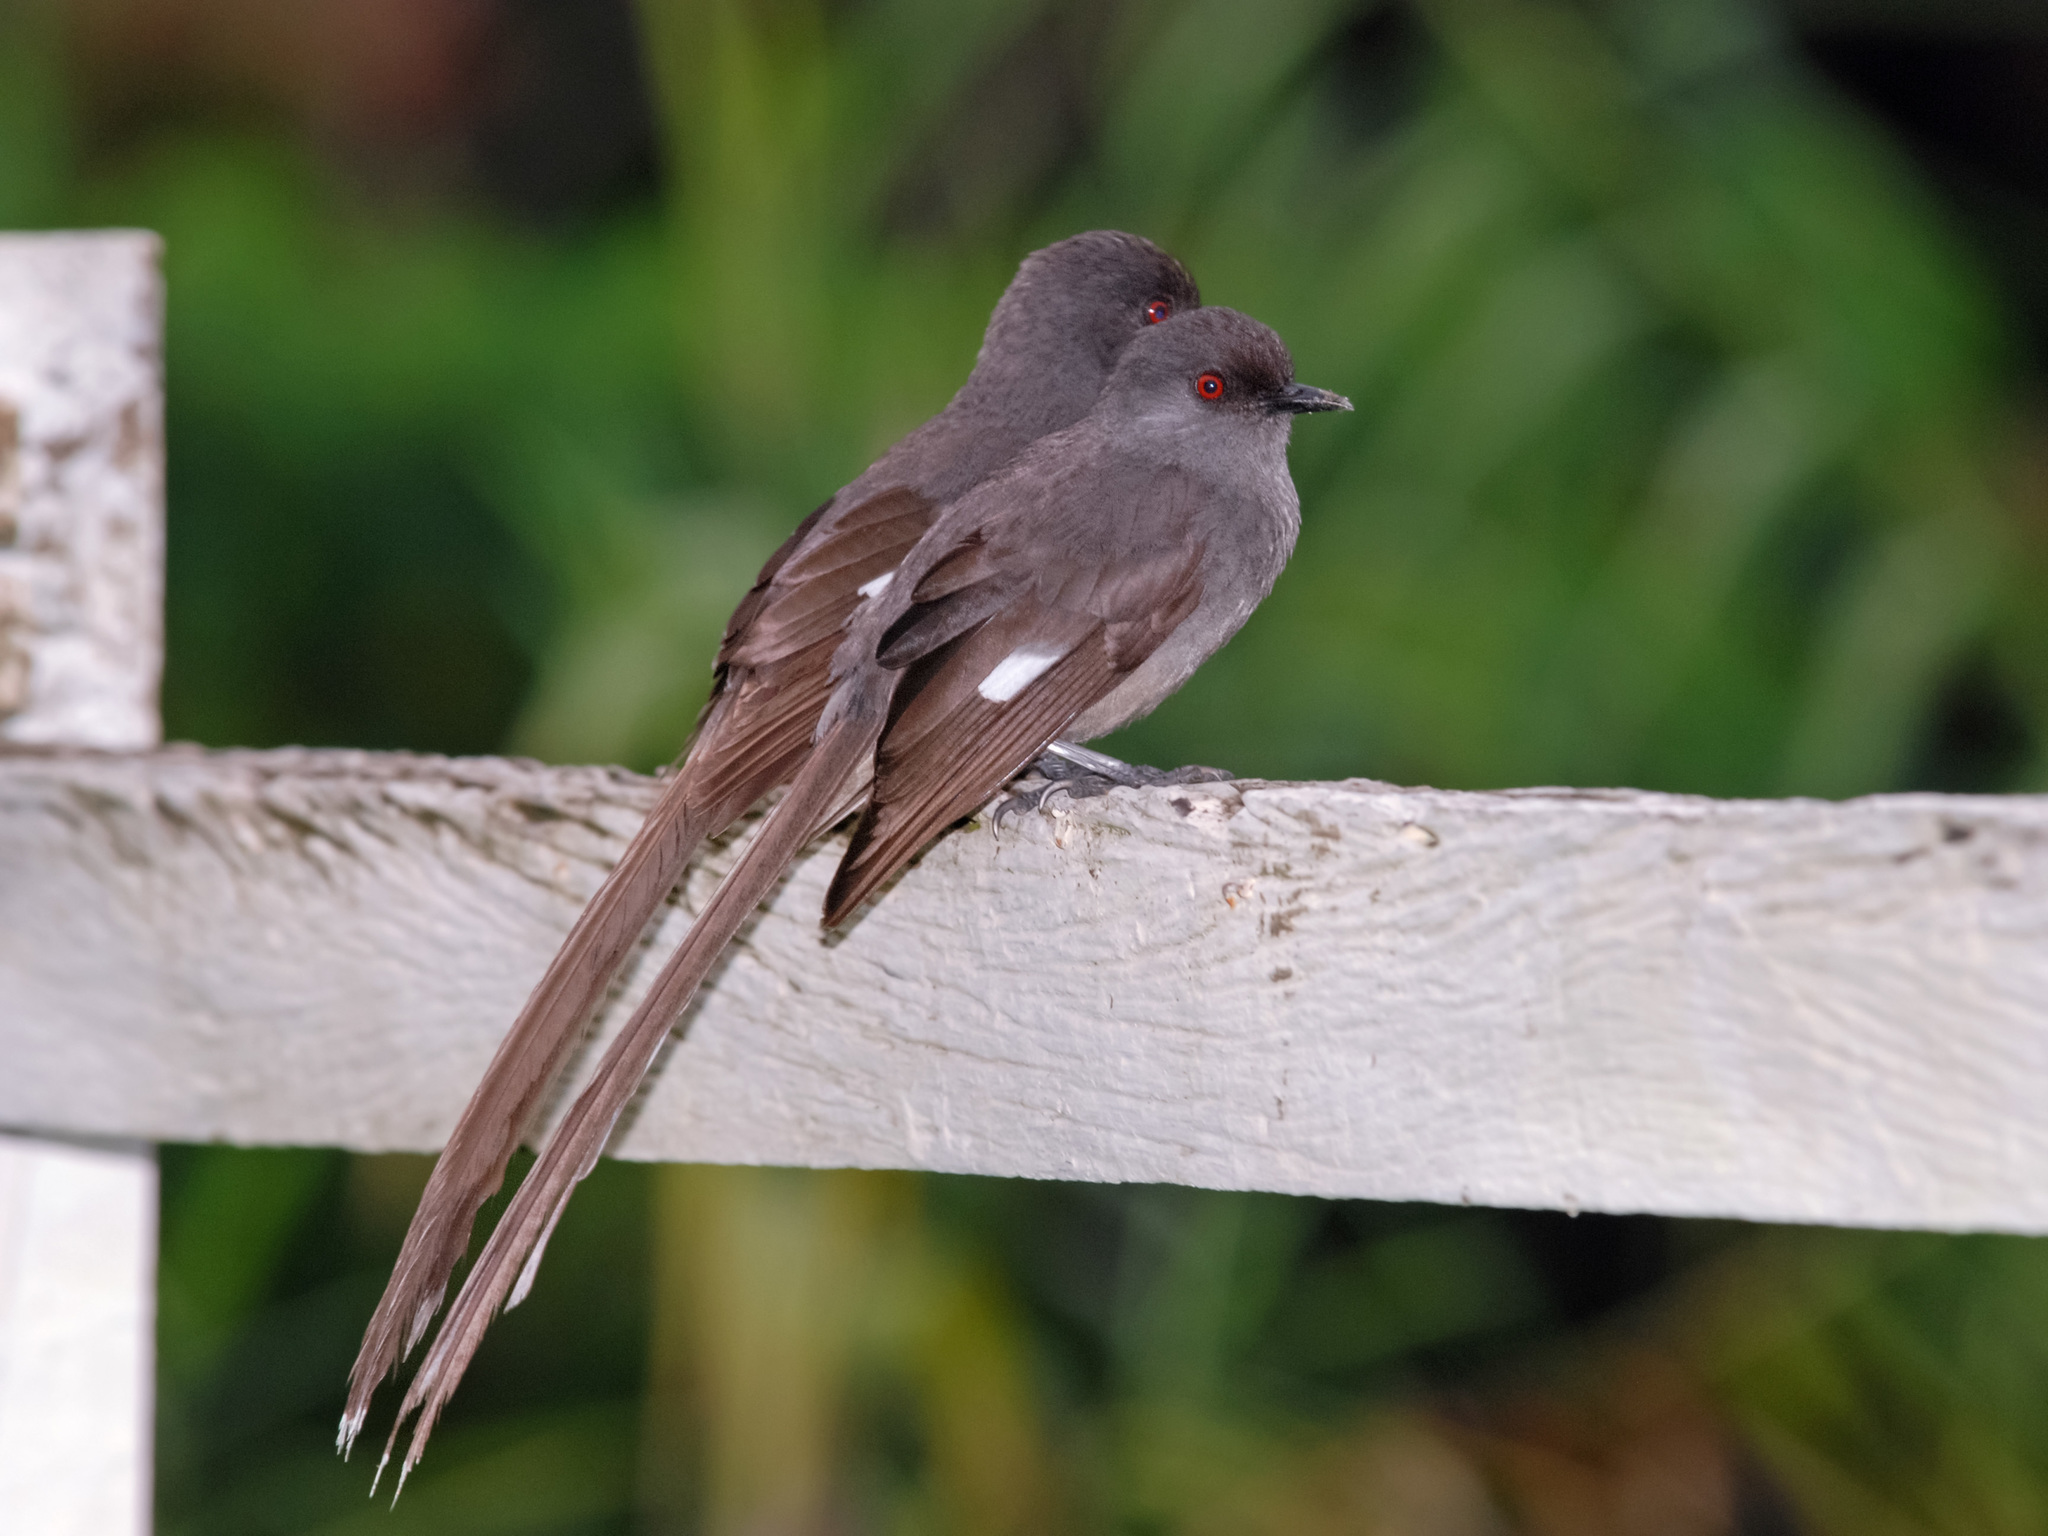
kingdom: Animalia
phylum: Chordata
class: Aves
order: Passeriformes
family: Leiothrichidae
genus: Heterophasia
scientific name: Heterophasia picaoides
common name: Long-tailed sibia
